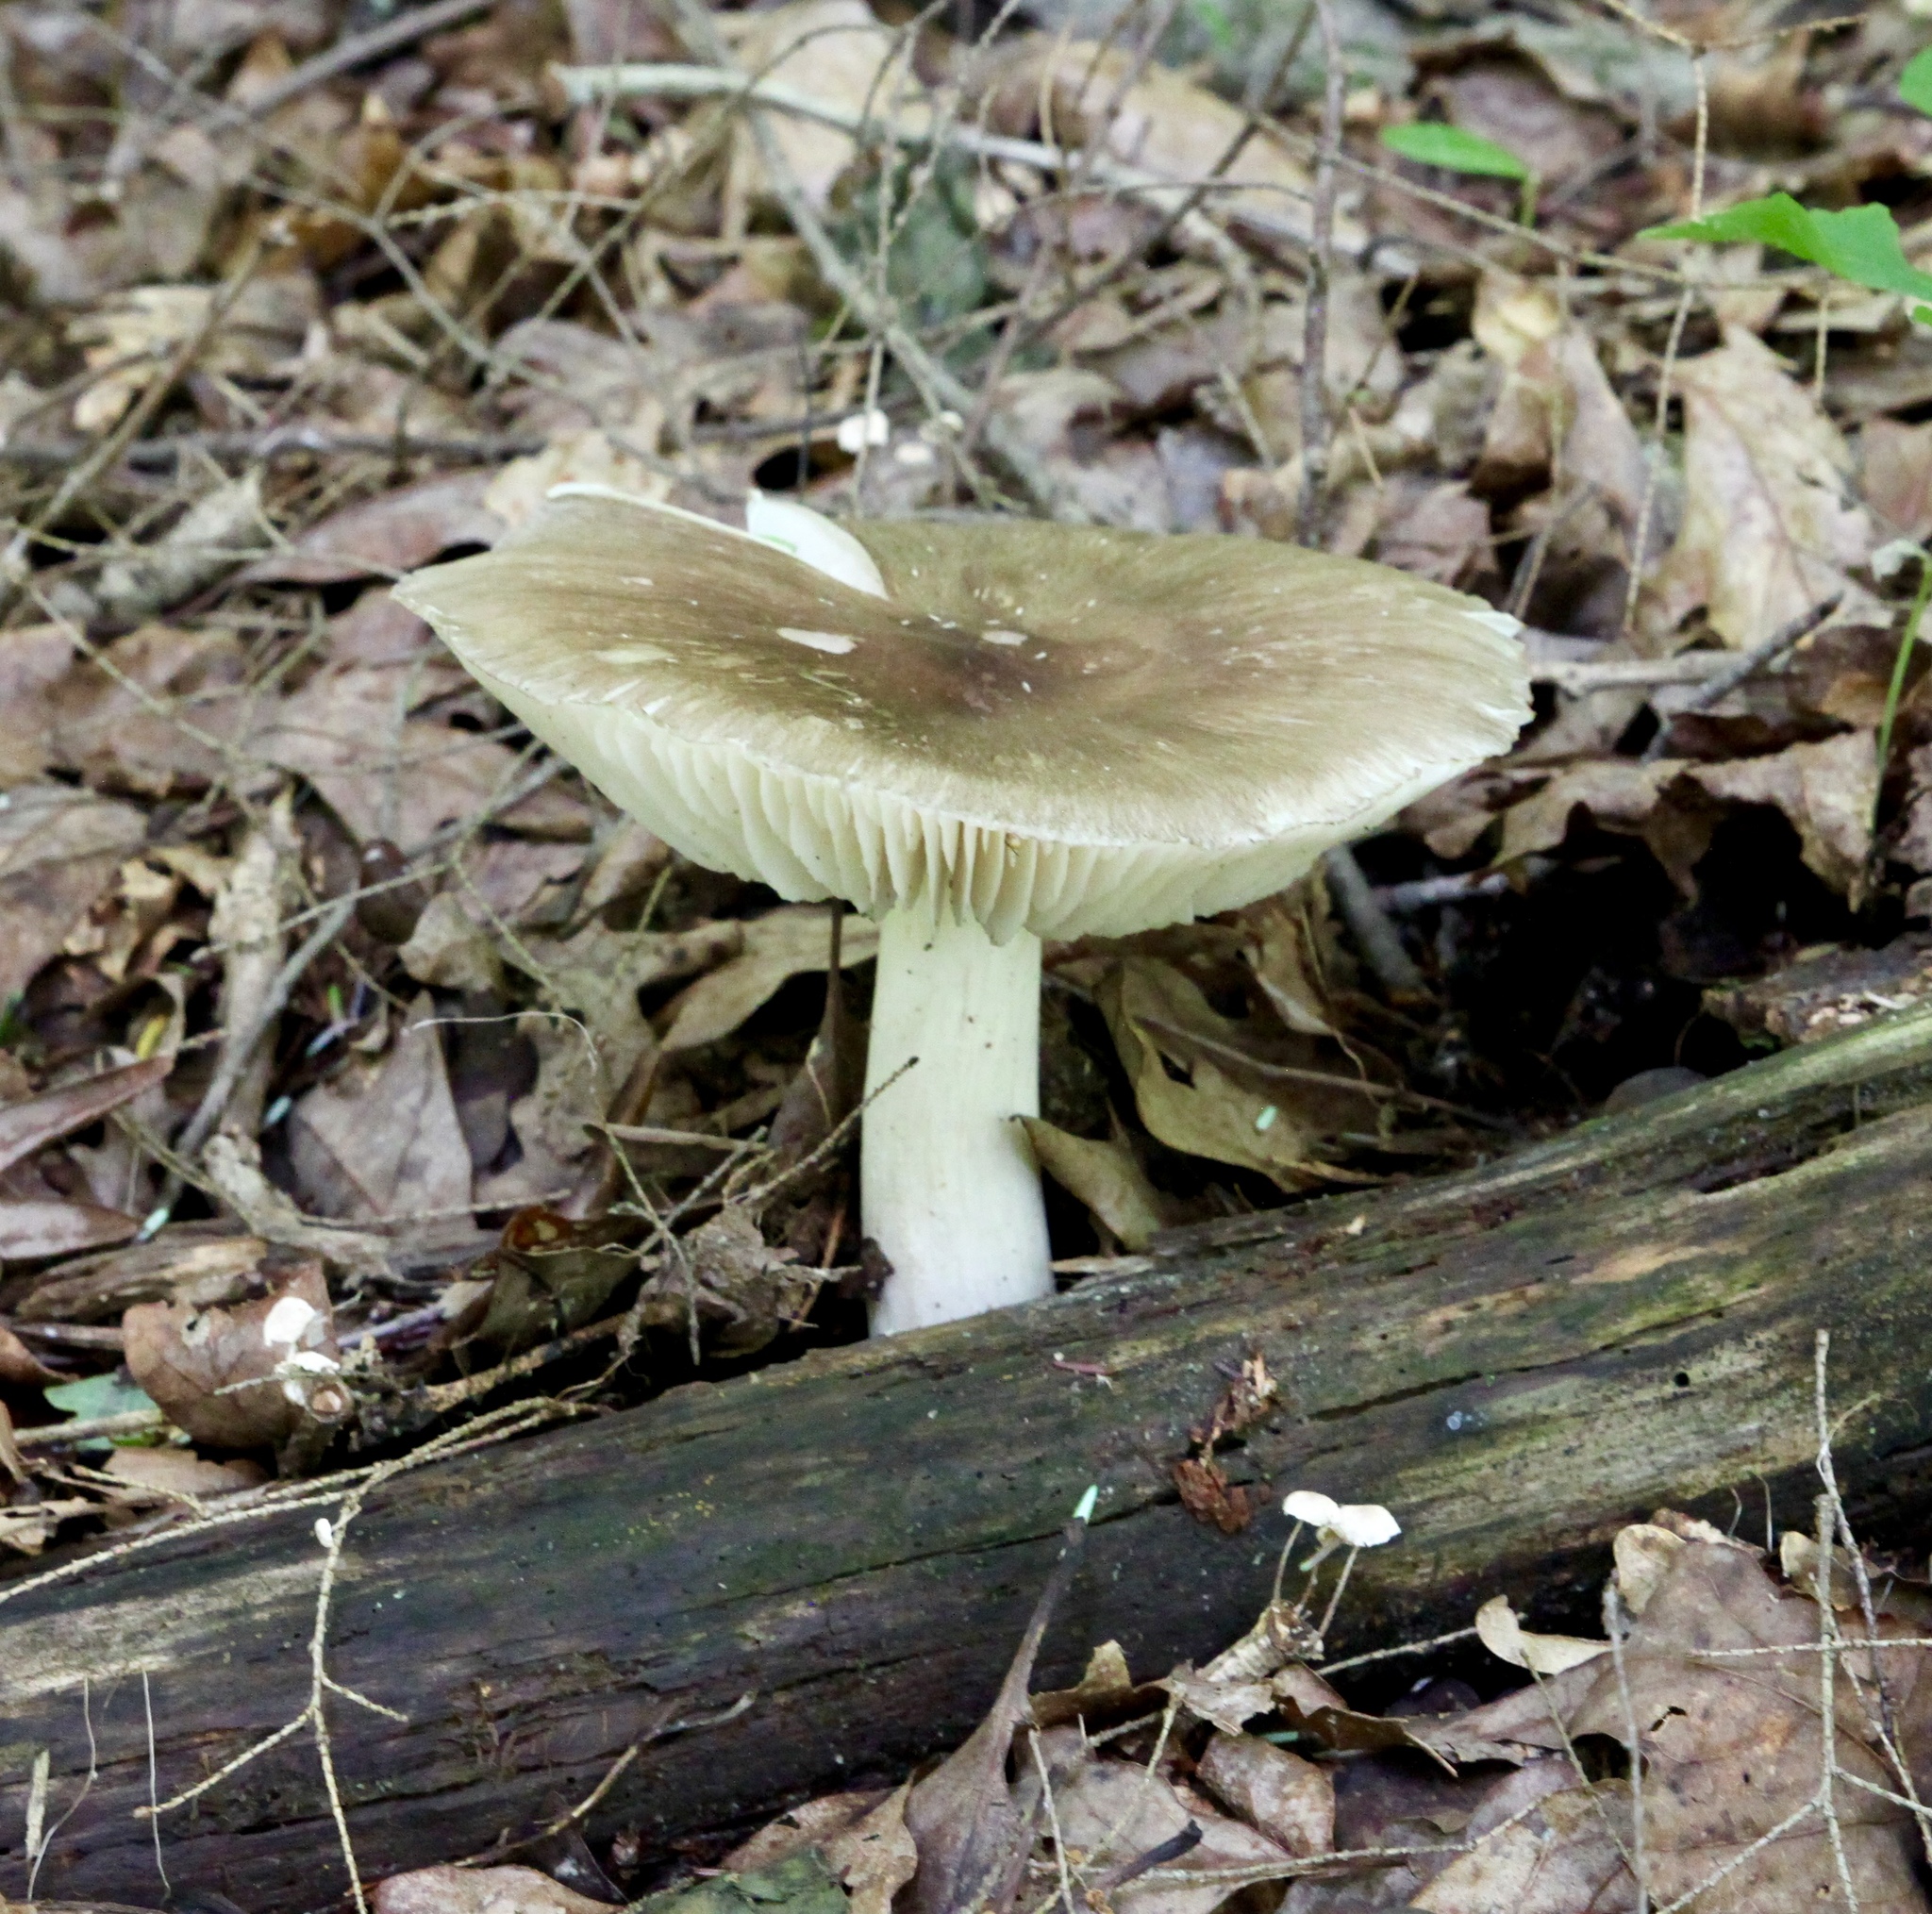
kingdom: Fungi
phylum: Basidiomycota
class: Agaricomycetes
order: Agaricales
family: Tricholomataceae
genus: Megacollybia
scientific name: Megacollybia rodmanii
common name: Eastern american platterful mushroom
